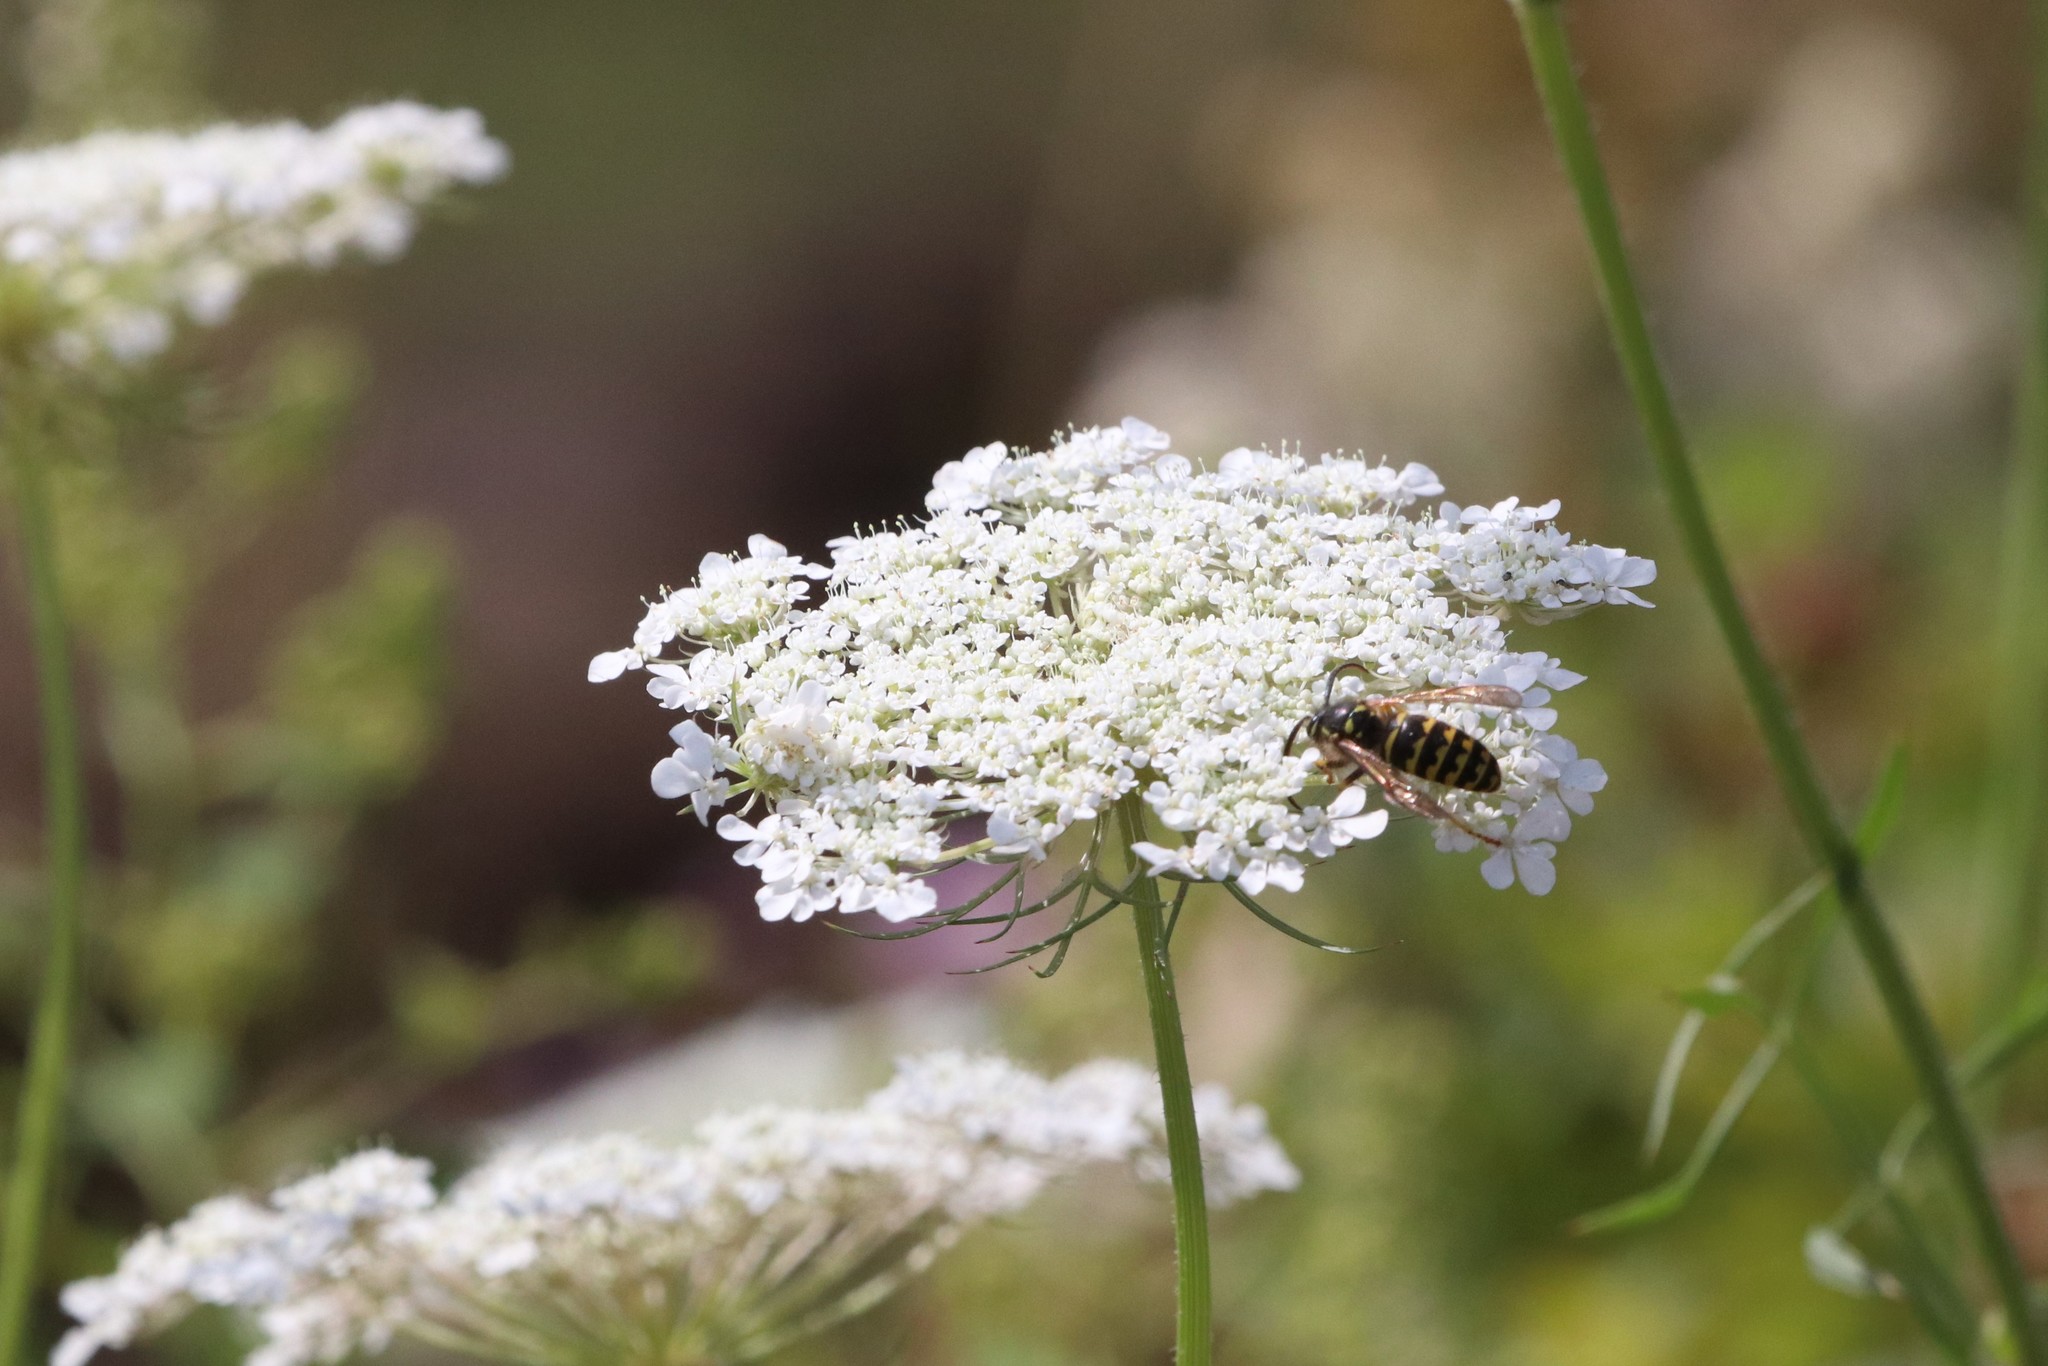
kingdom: Plantae
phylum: Tracheophyta
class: Magnoliopsida
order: Apiales
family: Apiaceae
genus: Daucus
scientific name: Daucus carota
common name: Wild carrot
